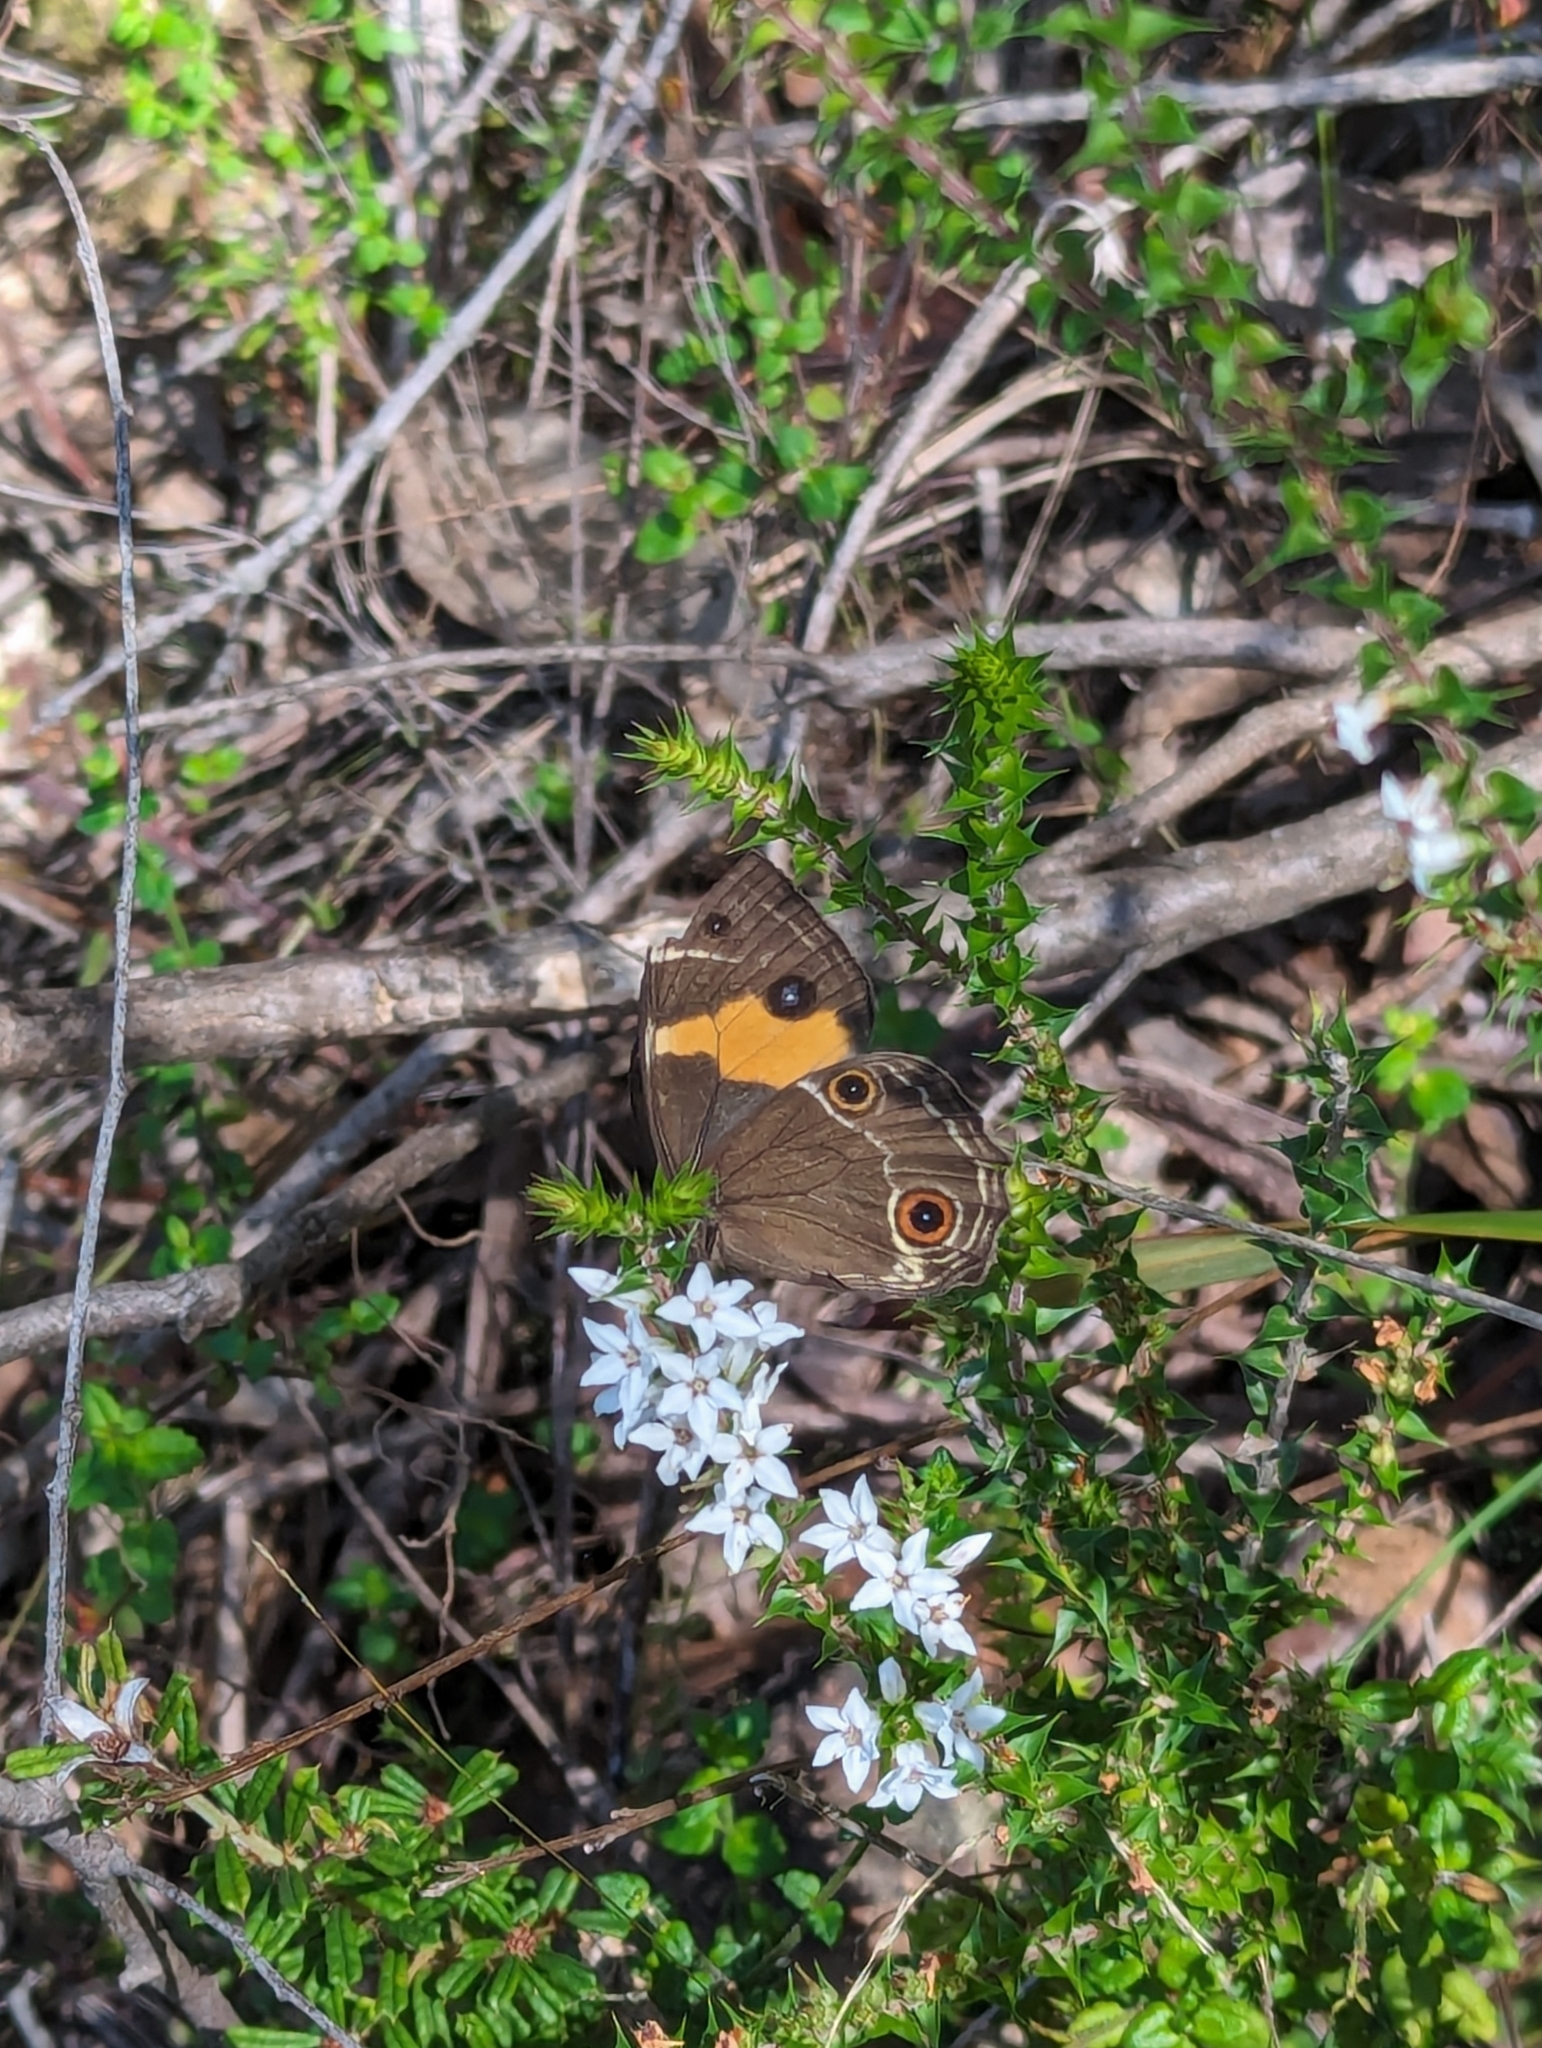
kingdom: Animalia
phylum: Arthropoda
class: Insecta
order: Lepidoptera
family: Nymphalidae
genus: Tisiphone
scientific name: Tisiphone abeona
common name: Swordgrass brown
